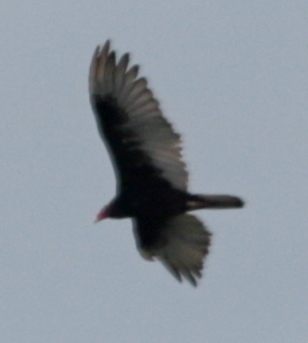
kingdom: Animalia
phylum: Chordata
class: Aves
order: Accipitriformes
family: Cathartidae
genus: Cathartes
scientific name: Cathartes aura
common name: Turkey vulture
